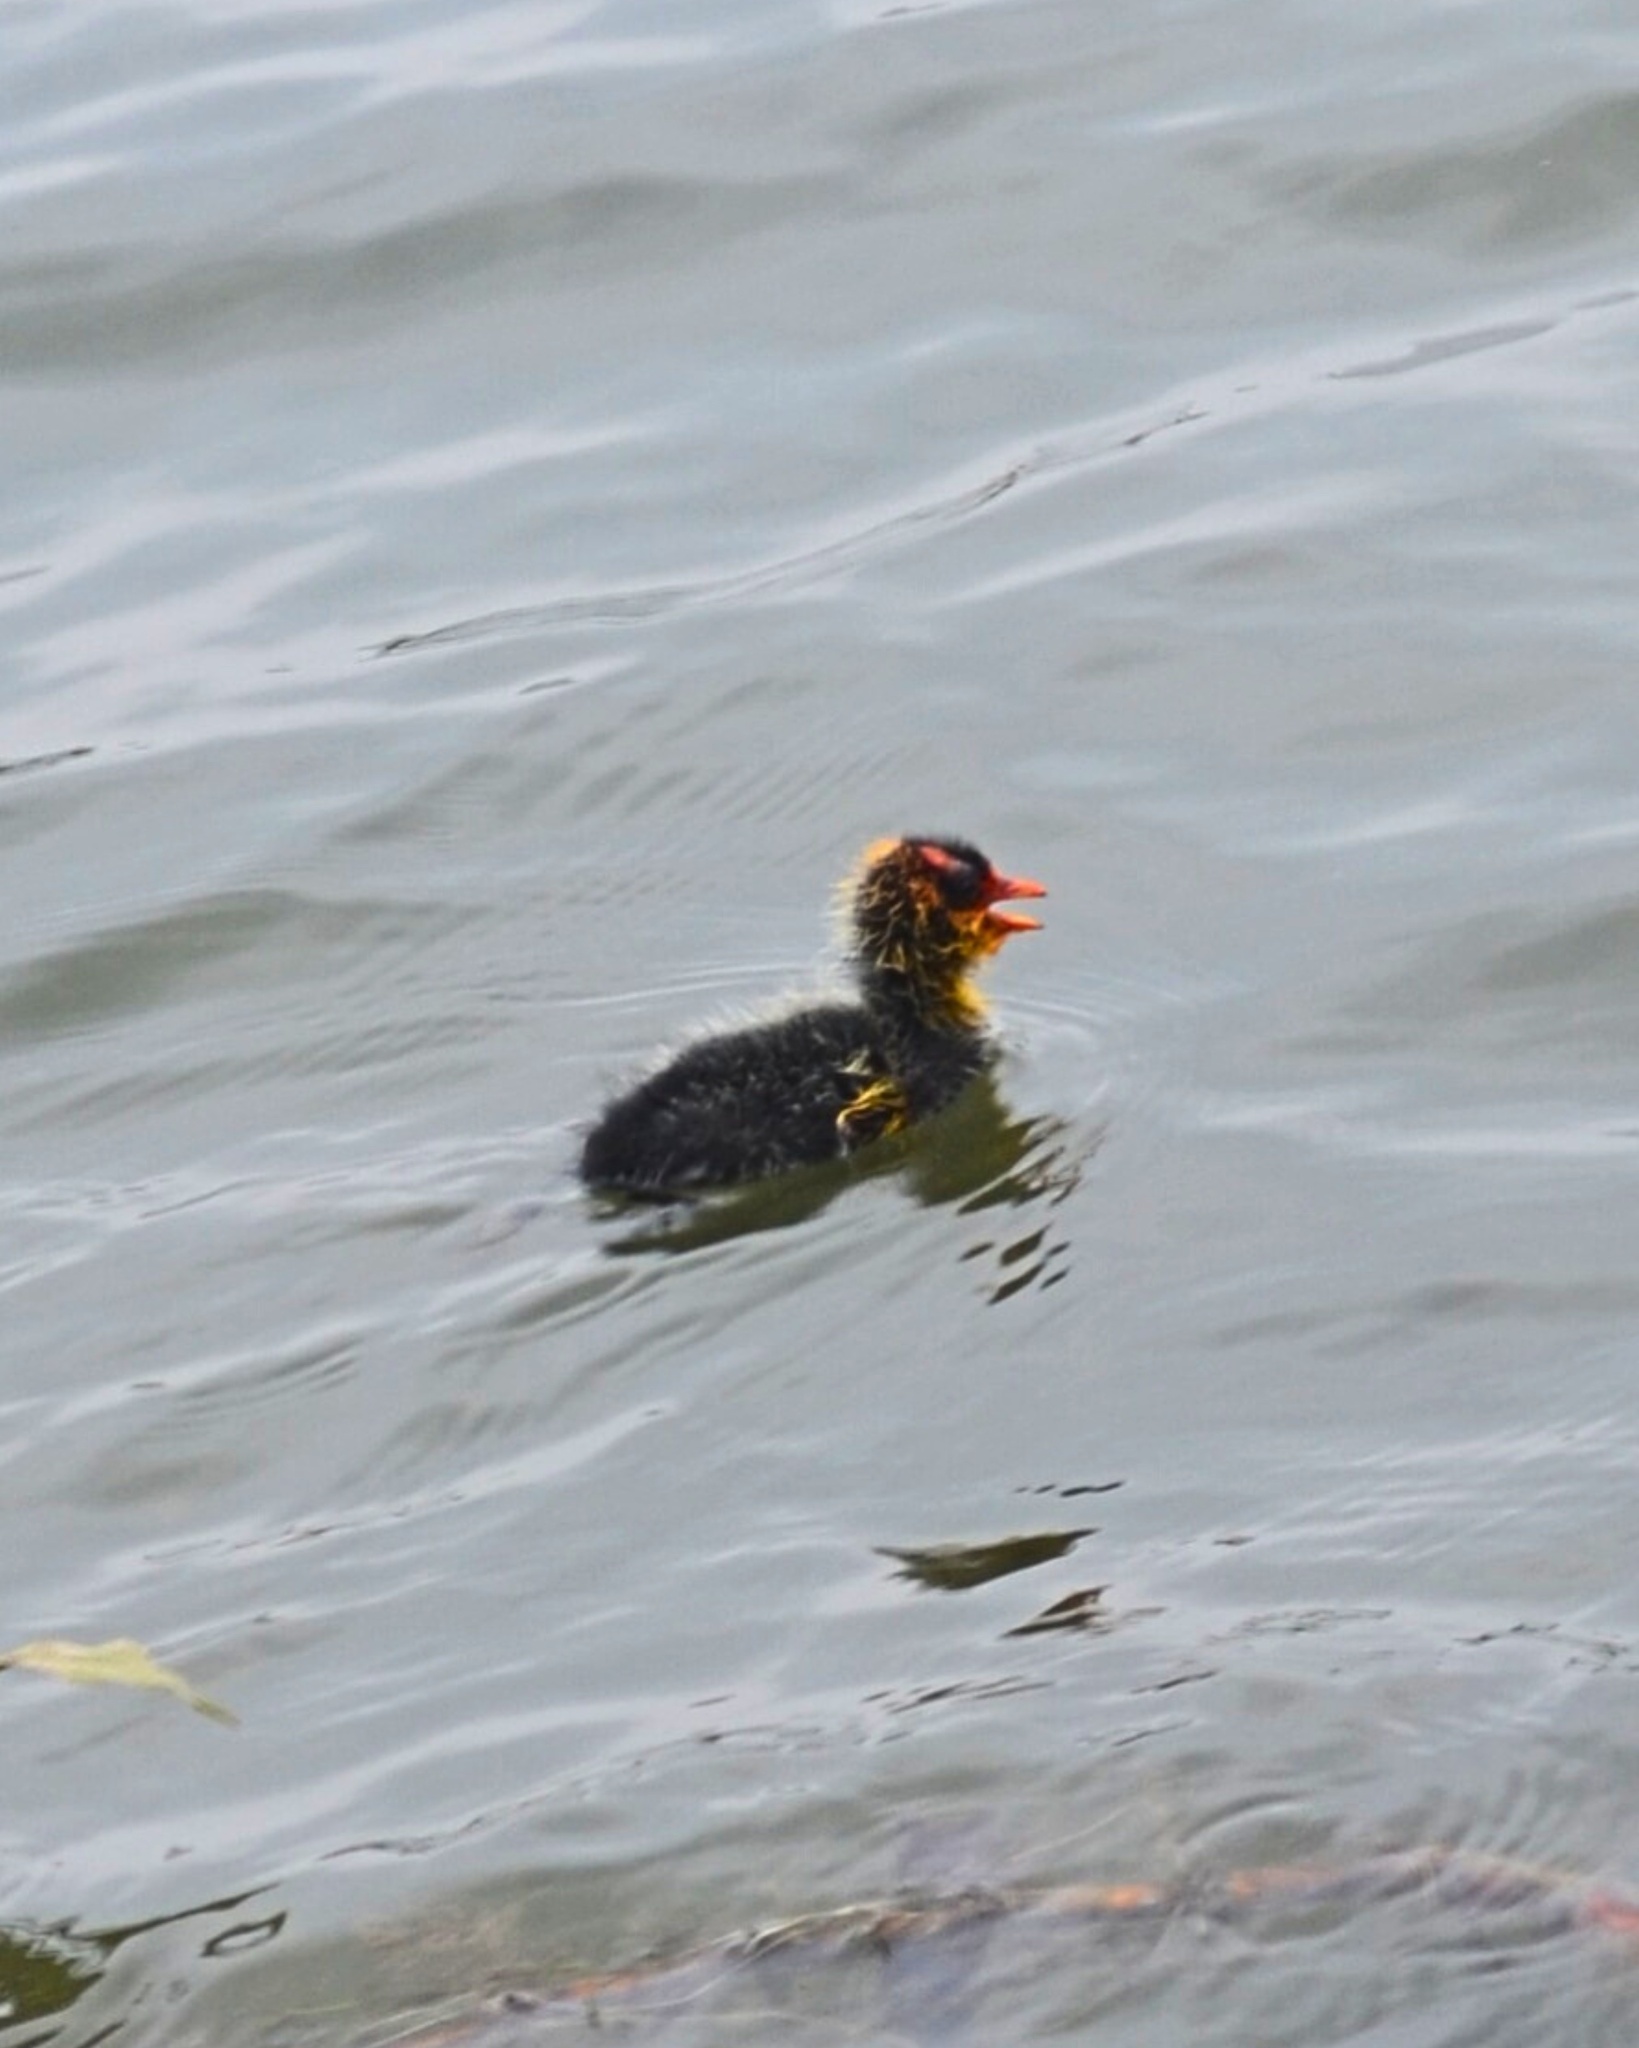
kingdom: Animalia
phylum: Chordata
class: Aves
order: Gruiformes
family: Rallidae
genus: Gallinula
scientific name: Gallinula chloropus
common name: Common moorhen
